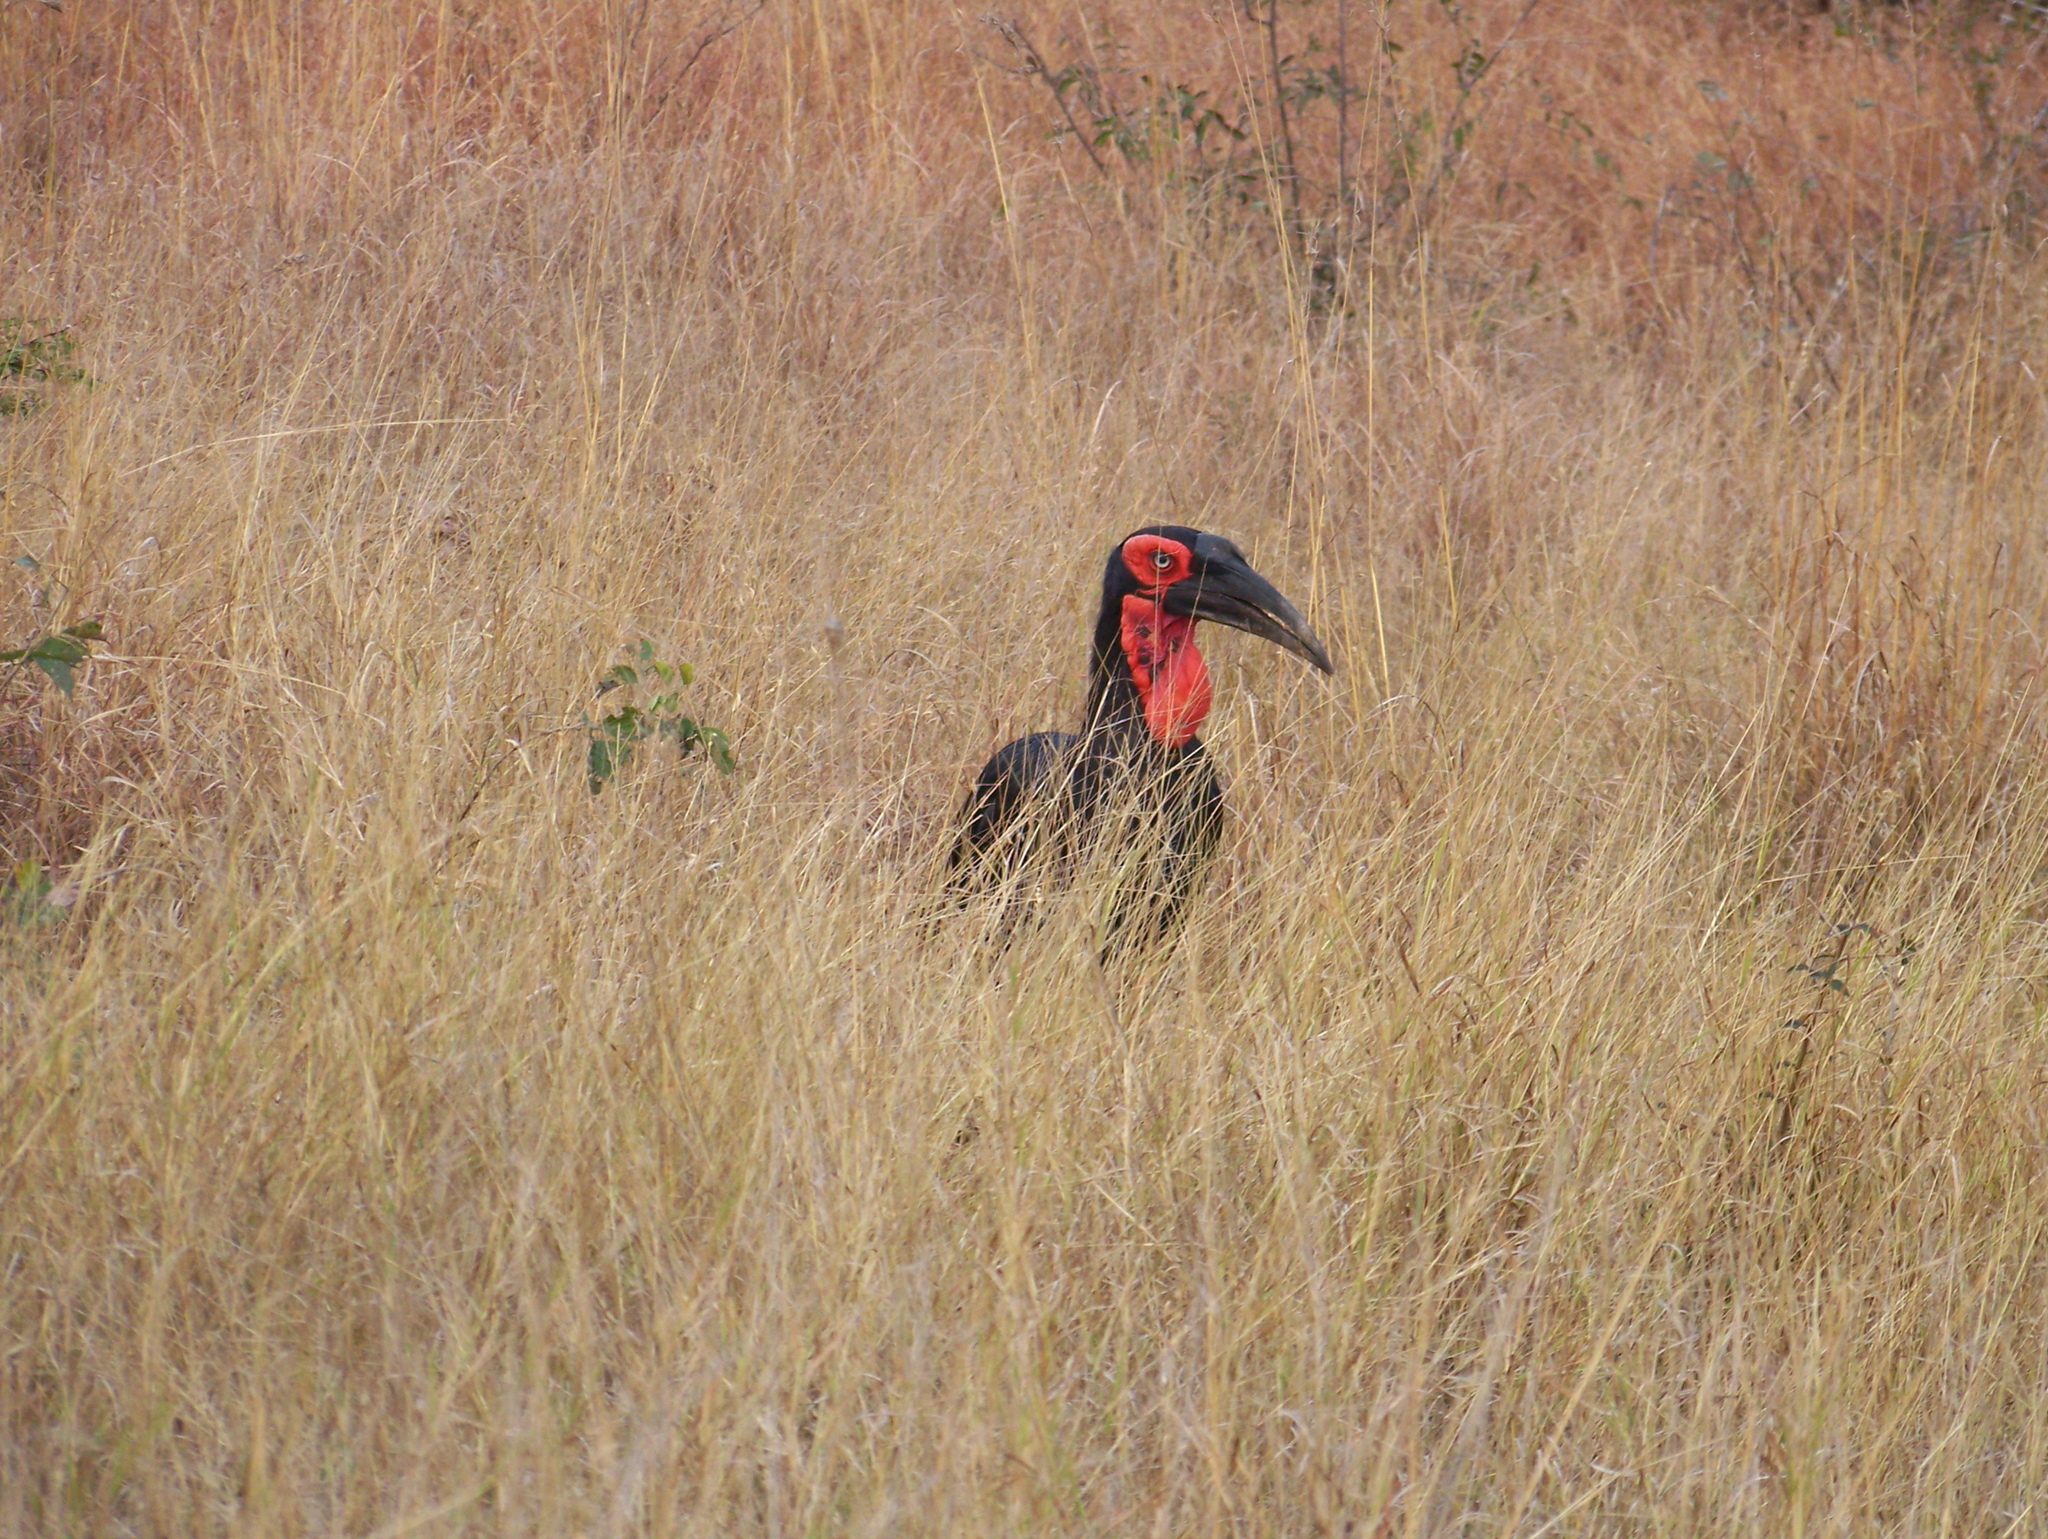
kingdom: Animalia
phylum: Chordata
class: Aves
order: Bucerotiformes
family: Bucorvidae
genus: Bucorvus
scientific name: Bucorvus leadbeateri
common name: Southern ground-hornbill
